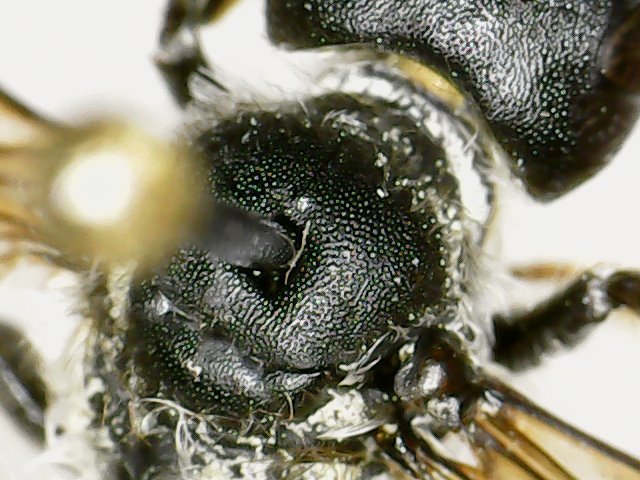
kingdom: Animalia
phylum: Arthropoda
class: Insecta
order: Hymenoptera
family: Megachilidae
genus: Megachile
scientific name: Megachile pugnata
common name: Pugnacious leafcutter bee
